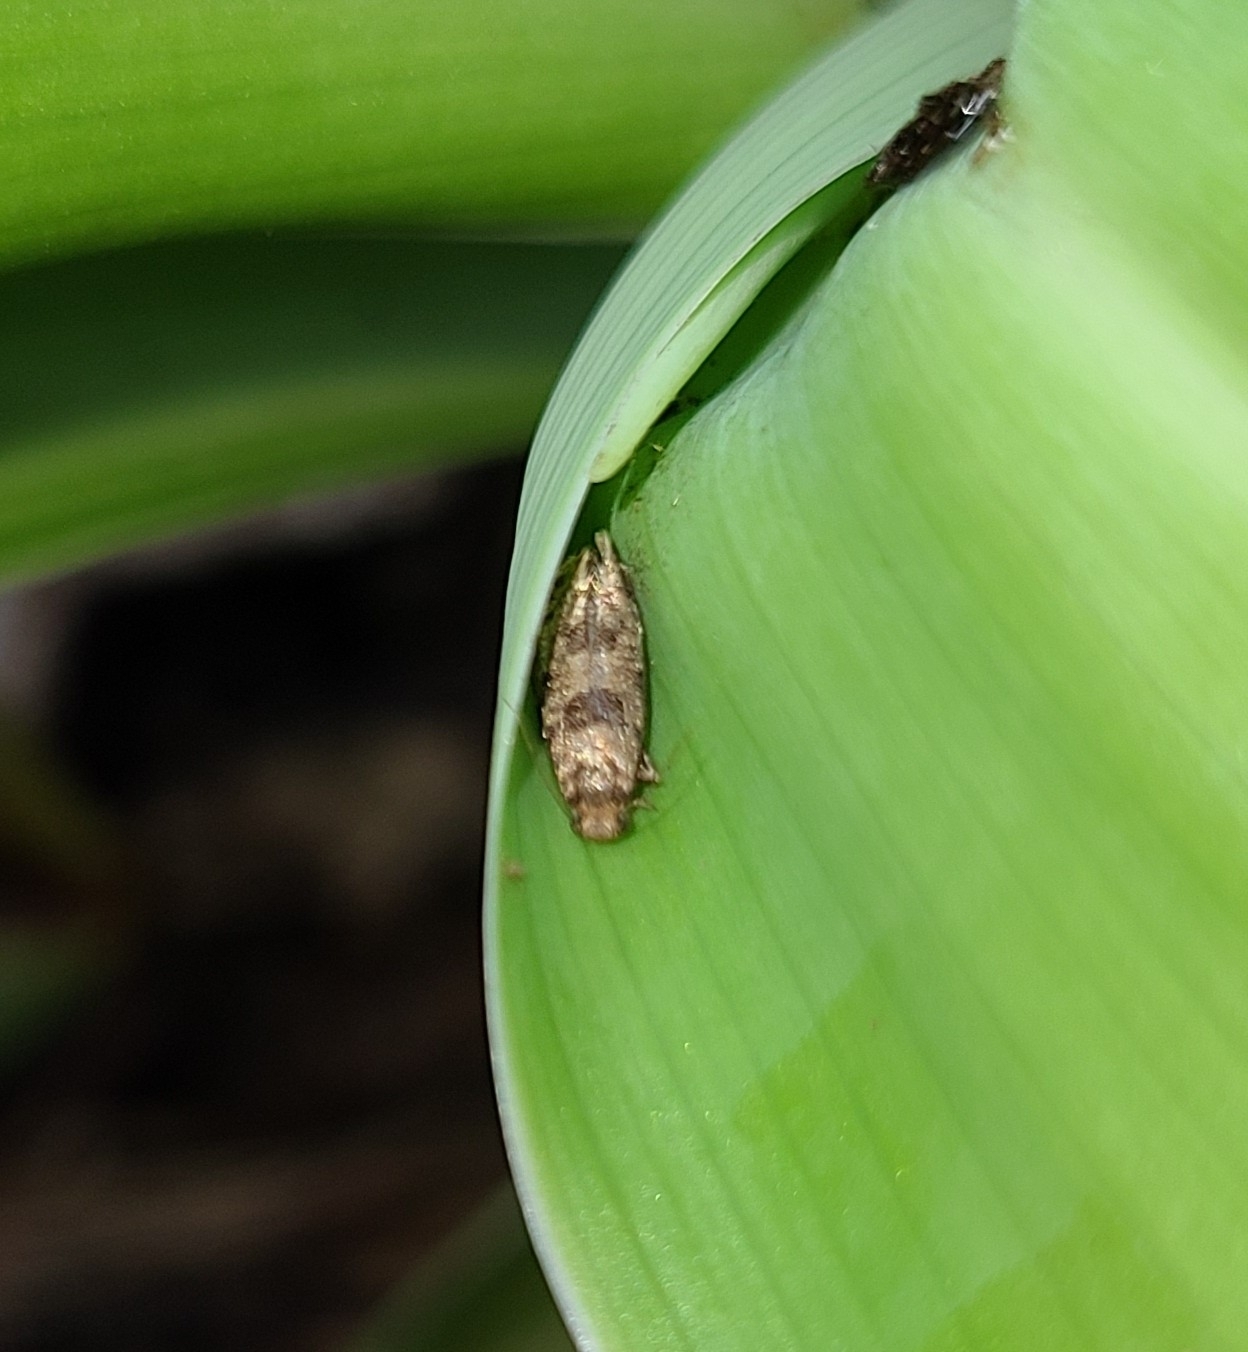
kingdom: Animalia
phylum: Arthropoda
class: Insecta
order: Lepidoptera
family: Tineidae
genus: Parochmastis
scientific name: Parochmastis hilderi
